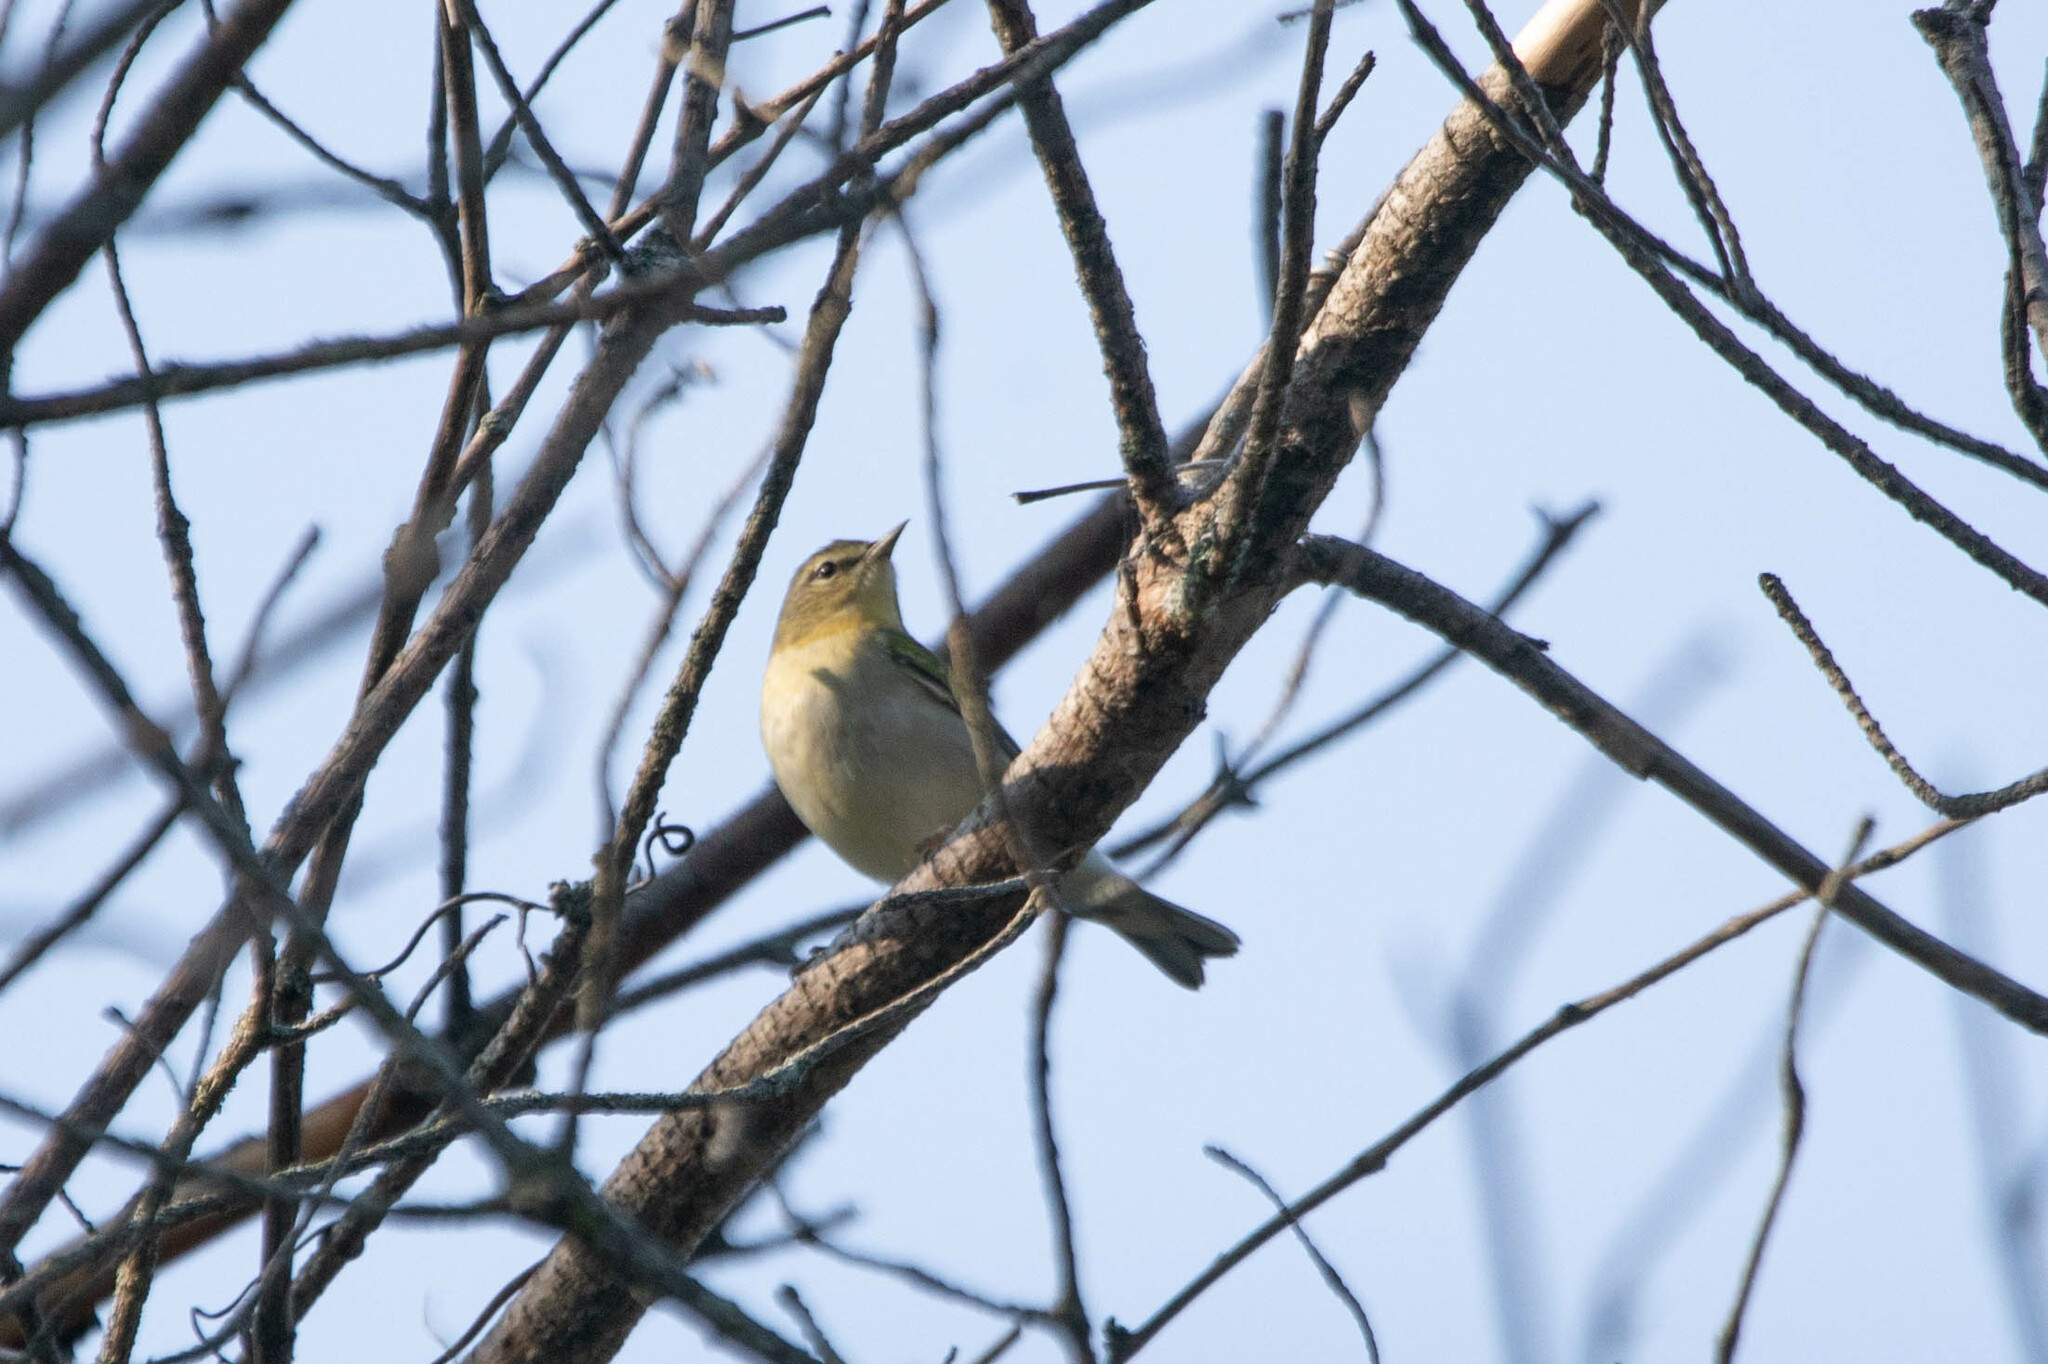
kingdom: Animalia
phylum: Chordata
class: Aves
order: Passeriformes
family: Parulidae
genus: Leiothlypis
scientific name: Leiothlypis peregrina
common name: Tennessee warbler
